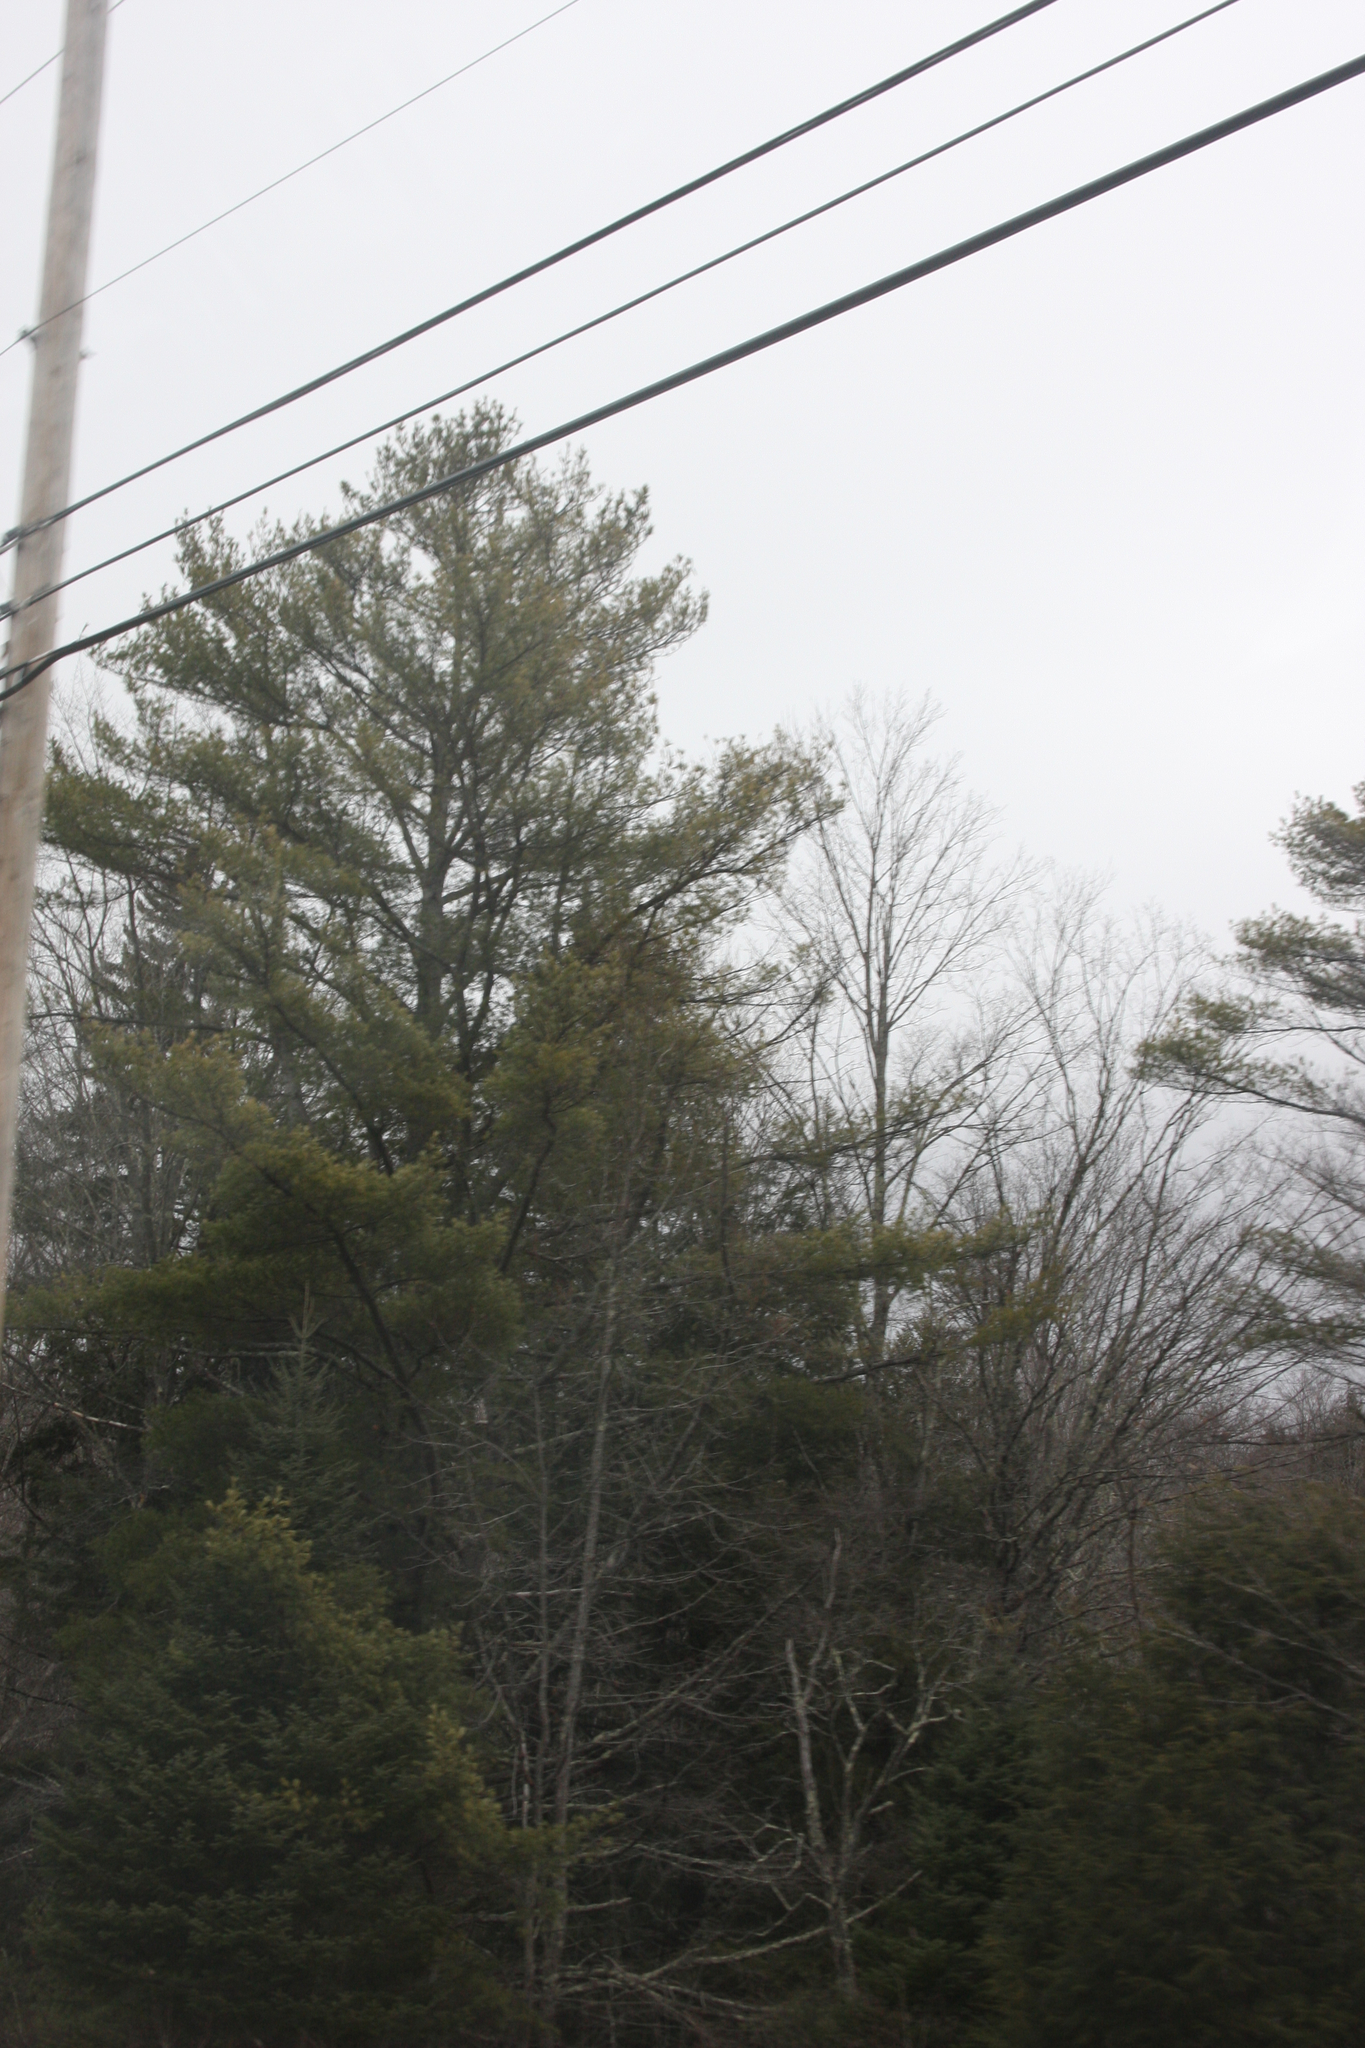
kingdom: Plantae
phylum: Tracheophyta
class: Pinopsida
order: Pinales
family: Pinaceae
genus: Pinus
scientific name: Pinus strobus
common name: Weymouth pine
